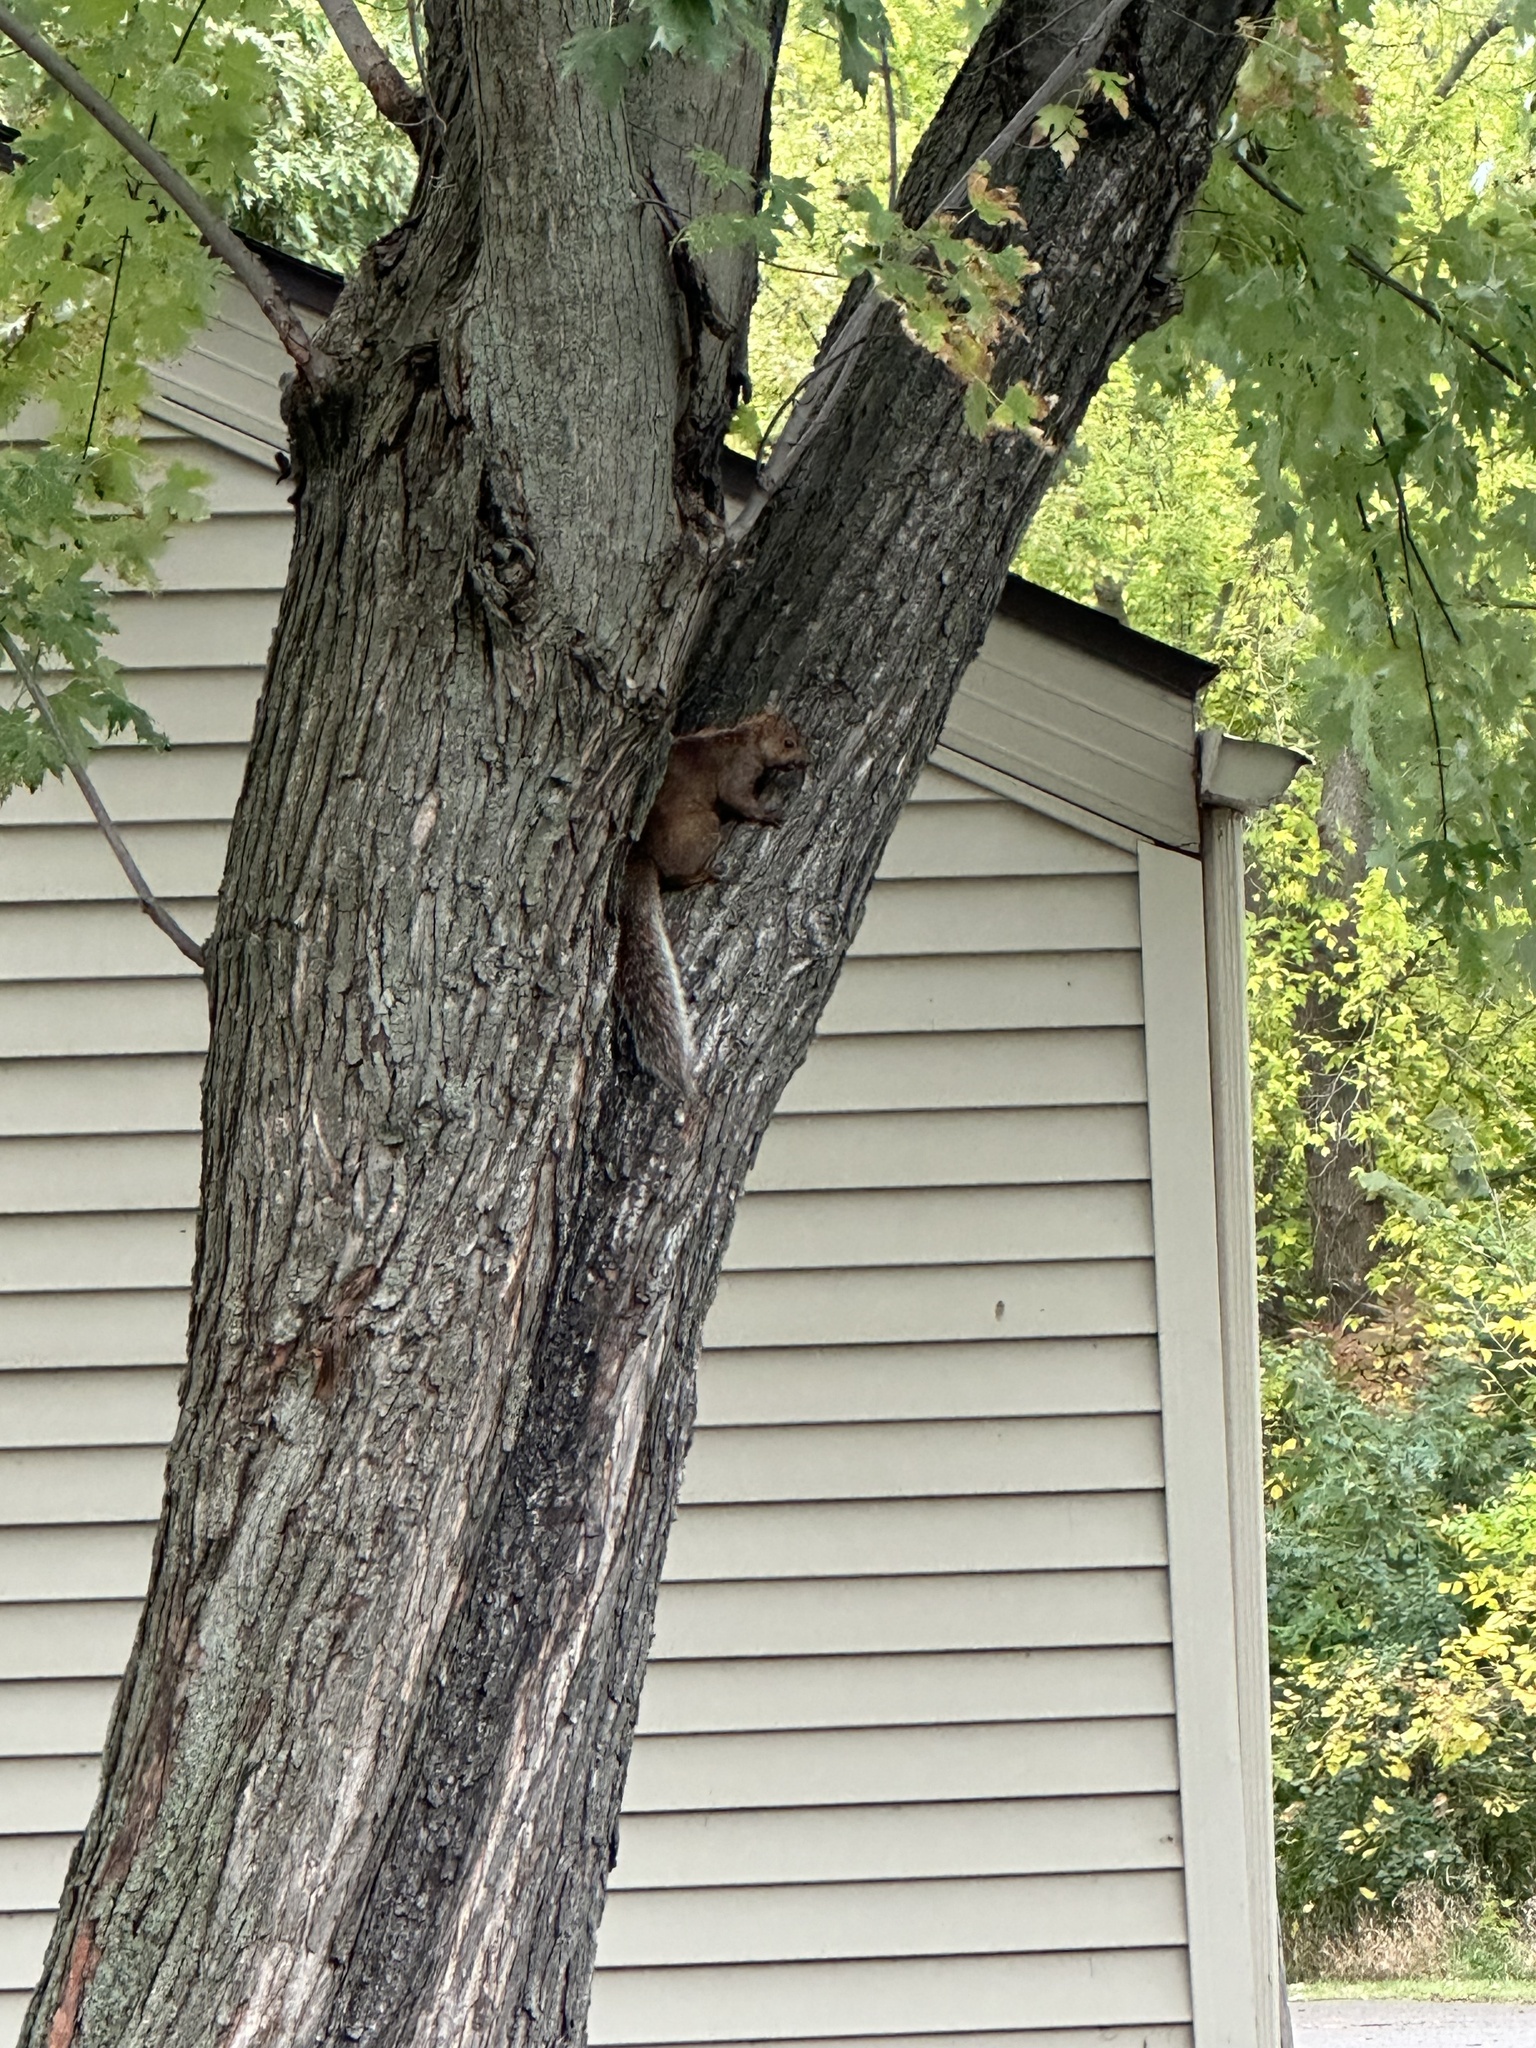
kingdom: Animalia
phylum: Chordata
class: Mammalia
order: Rodentia
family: Sciuridae
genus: Sciurus
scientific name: Sciurus carolinensis
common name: Eastern gray squirrel
